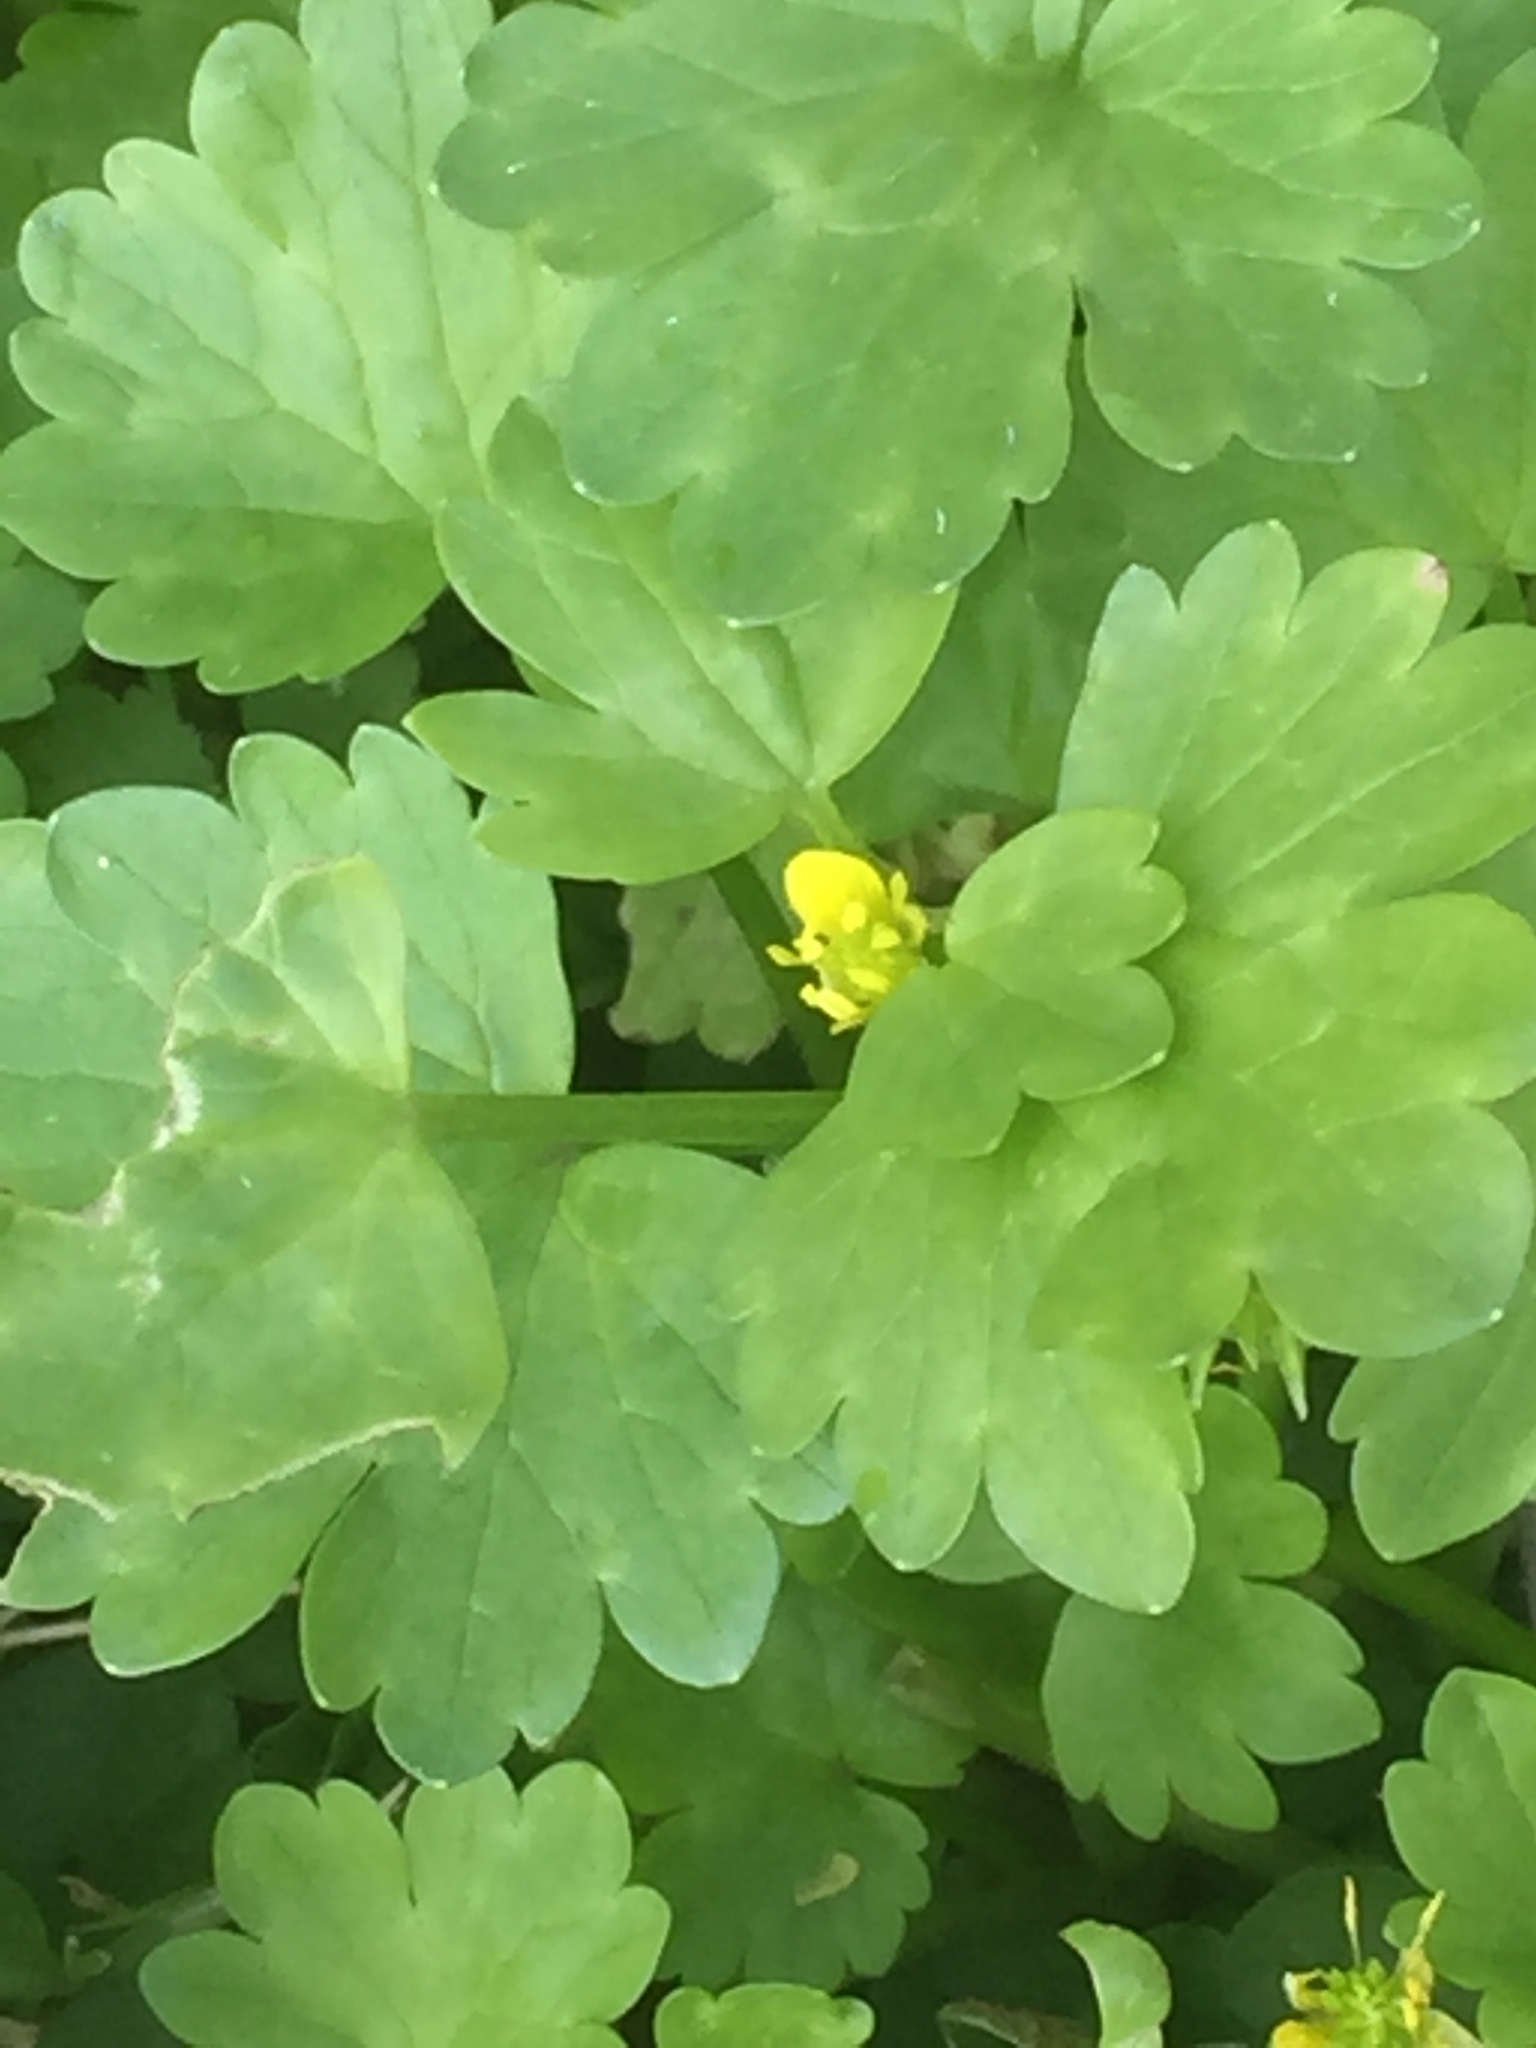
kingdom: Plantae
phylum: Tracheophyta
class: Magnoliopsida
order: Ranunculales
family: Ranunculaceae
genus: Ranunculus
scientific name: Ranunculus muricatus
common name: Rough-fruited buttercup
